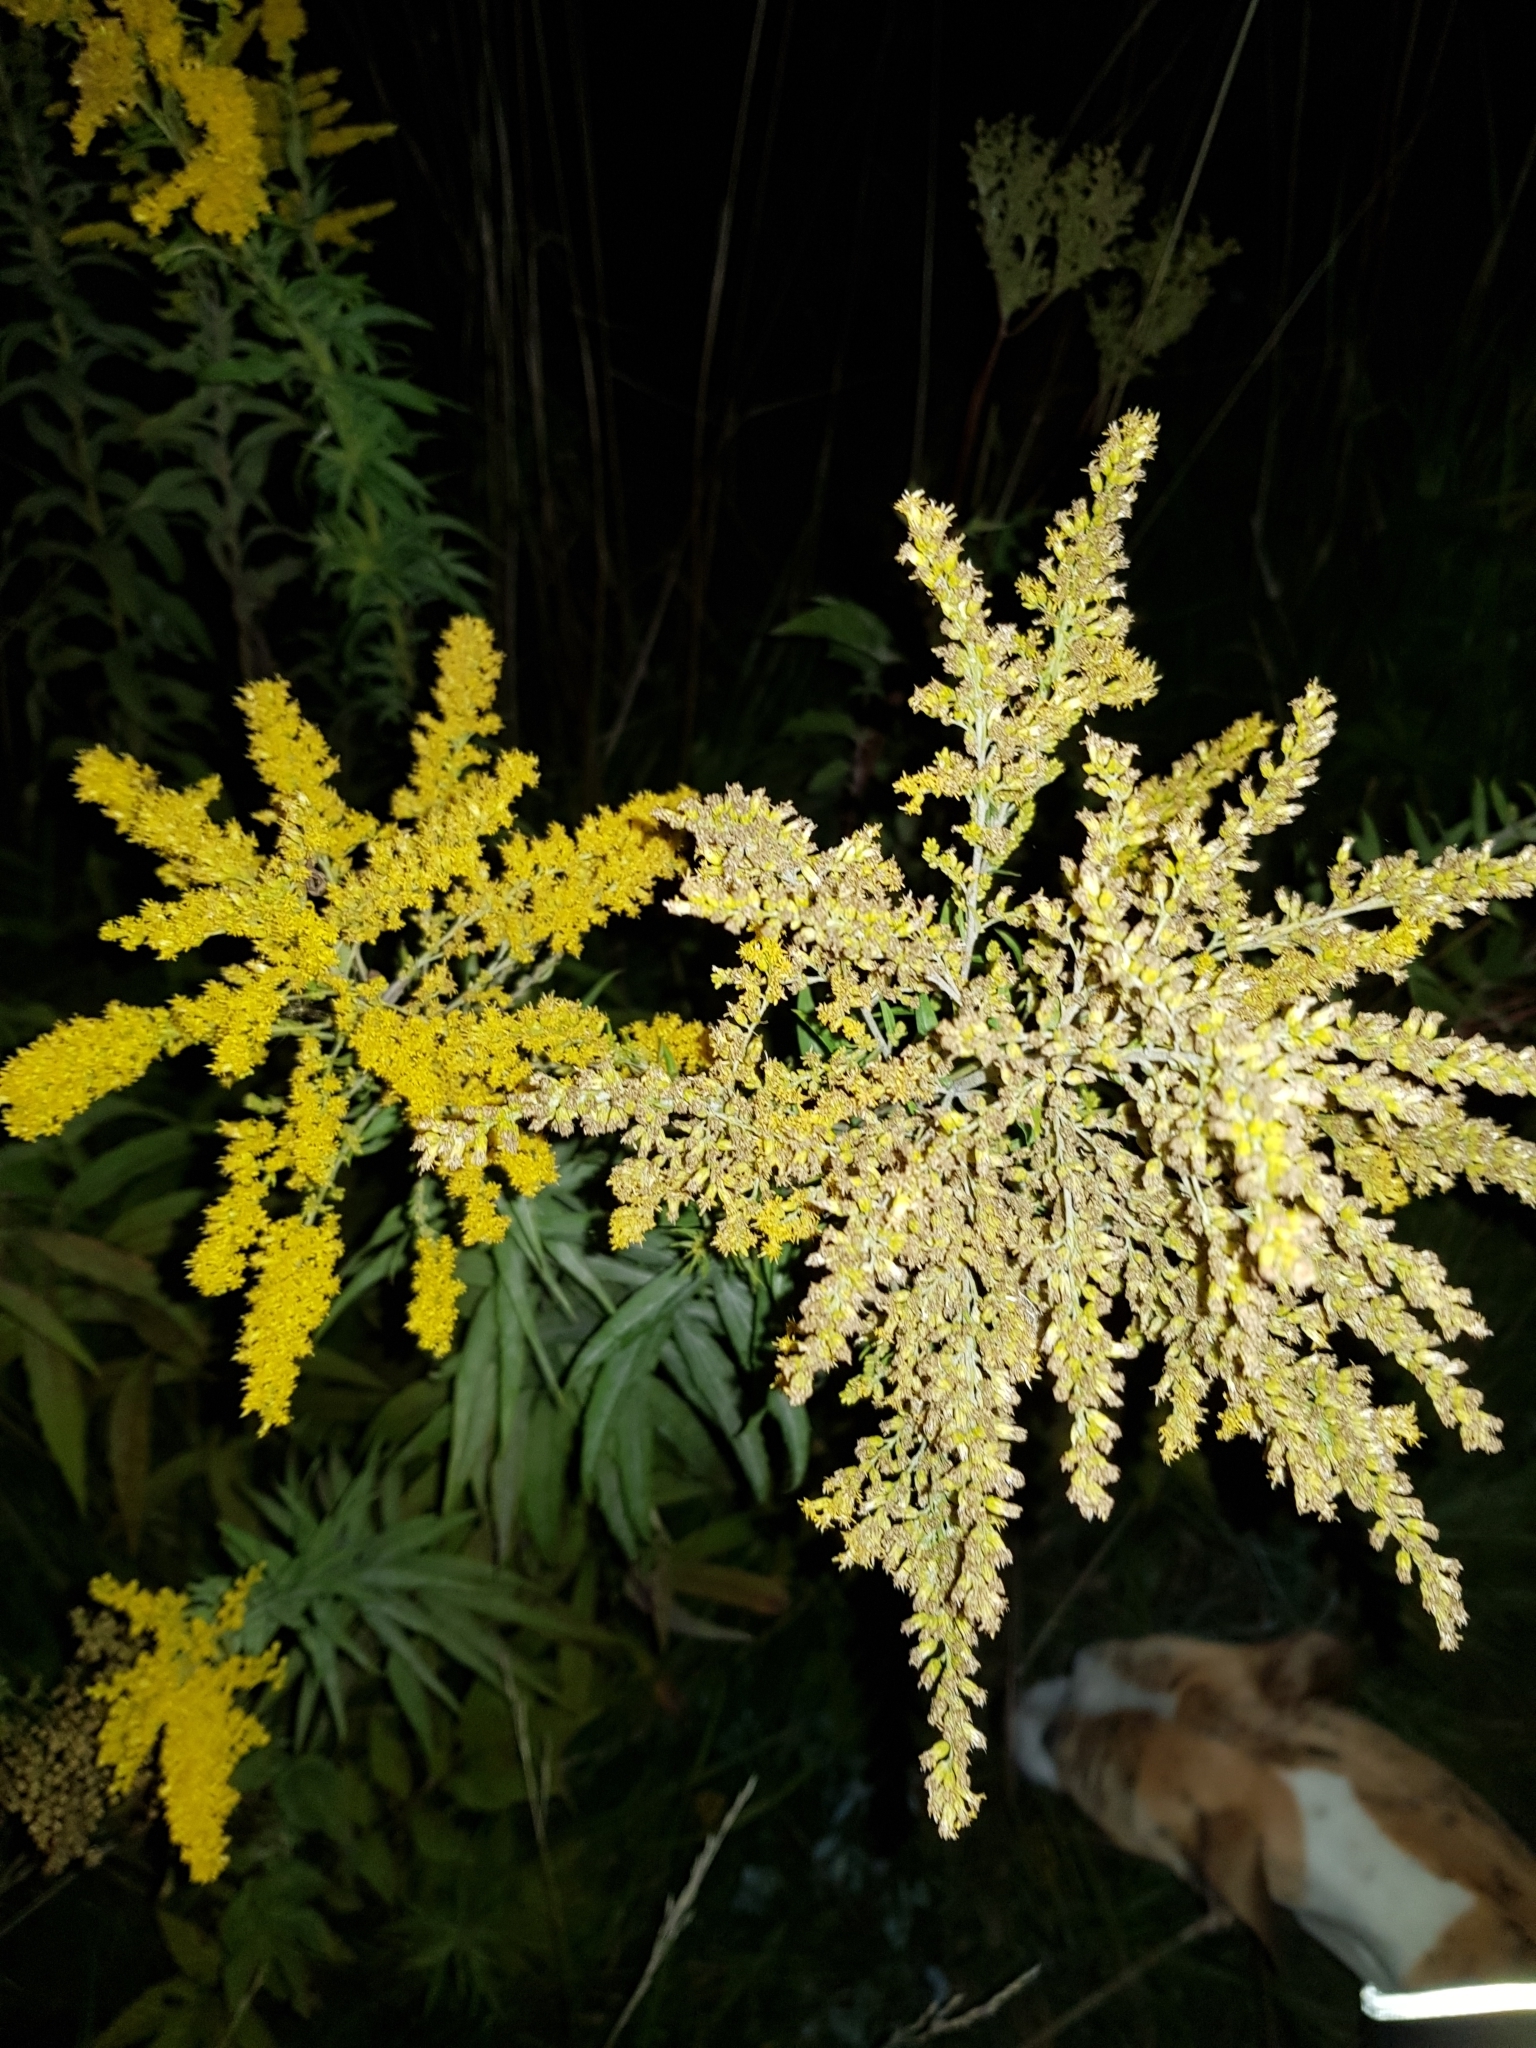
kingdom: Plantae
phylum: Tracheophyta
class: Magnoliopsida
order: Asterales
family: Asteraceae
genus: Solidago
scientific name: Solidago canadensis
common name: Canada goldenrod
